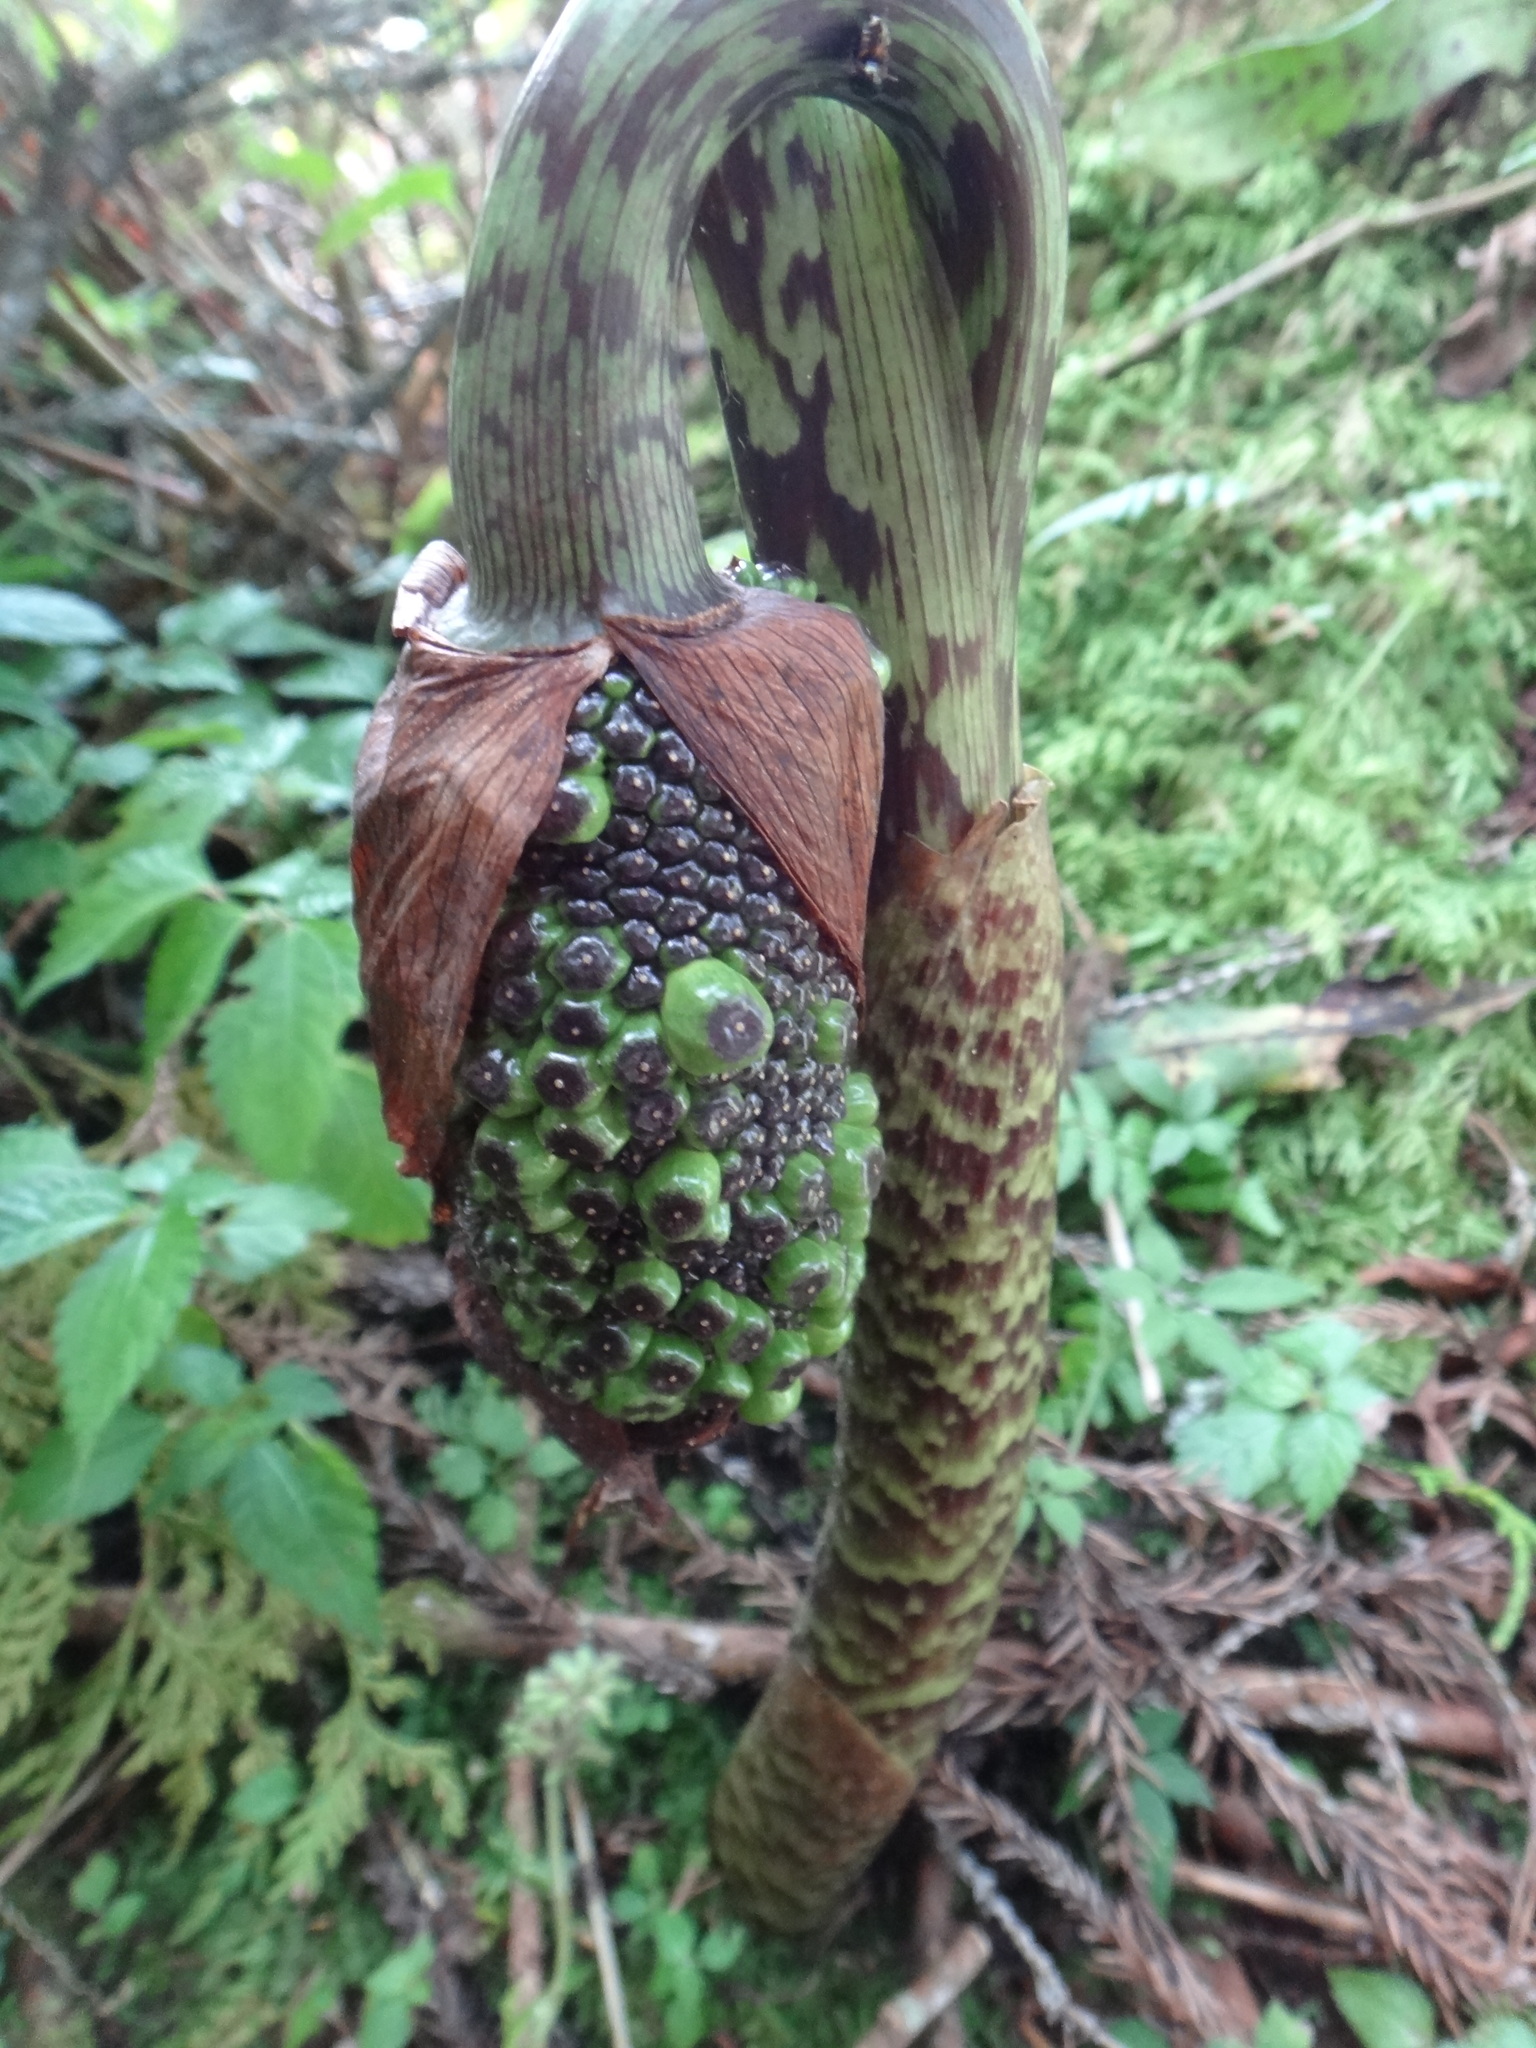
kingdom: Plantae
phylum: Tracheophyta
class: Liliopsida
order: Alismatales
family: Araceae
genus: Arisaema
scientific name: Arisaema taiwanense
